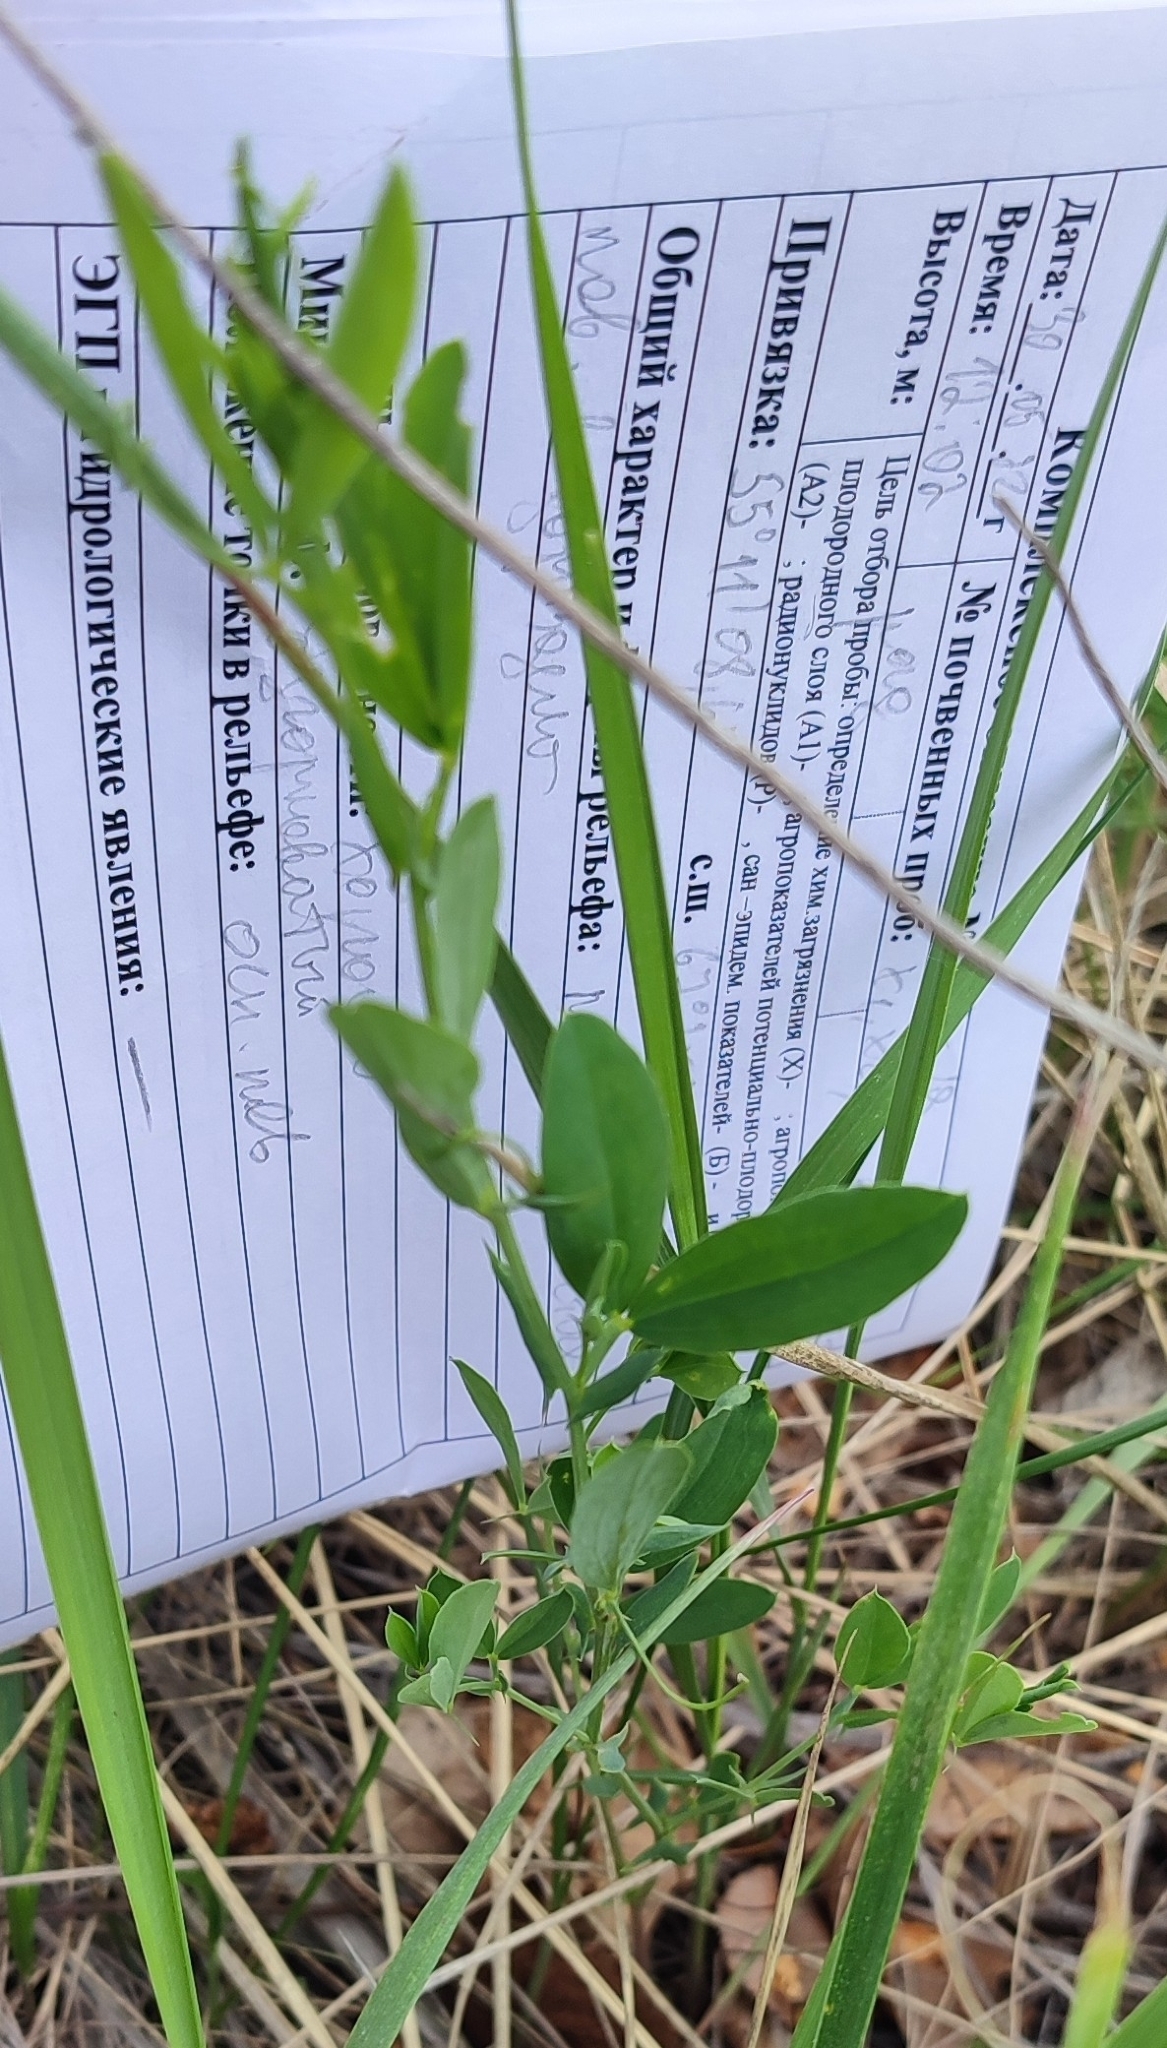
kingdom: Plantae
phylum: Tracheophyta
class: Magnoliopsida
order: Fabales
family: Fabaceae
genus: Lathyrus
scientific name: Lathyrus tuberosus
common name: Tuberous pea
